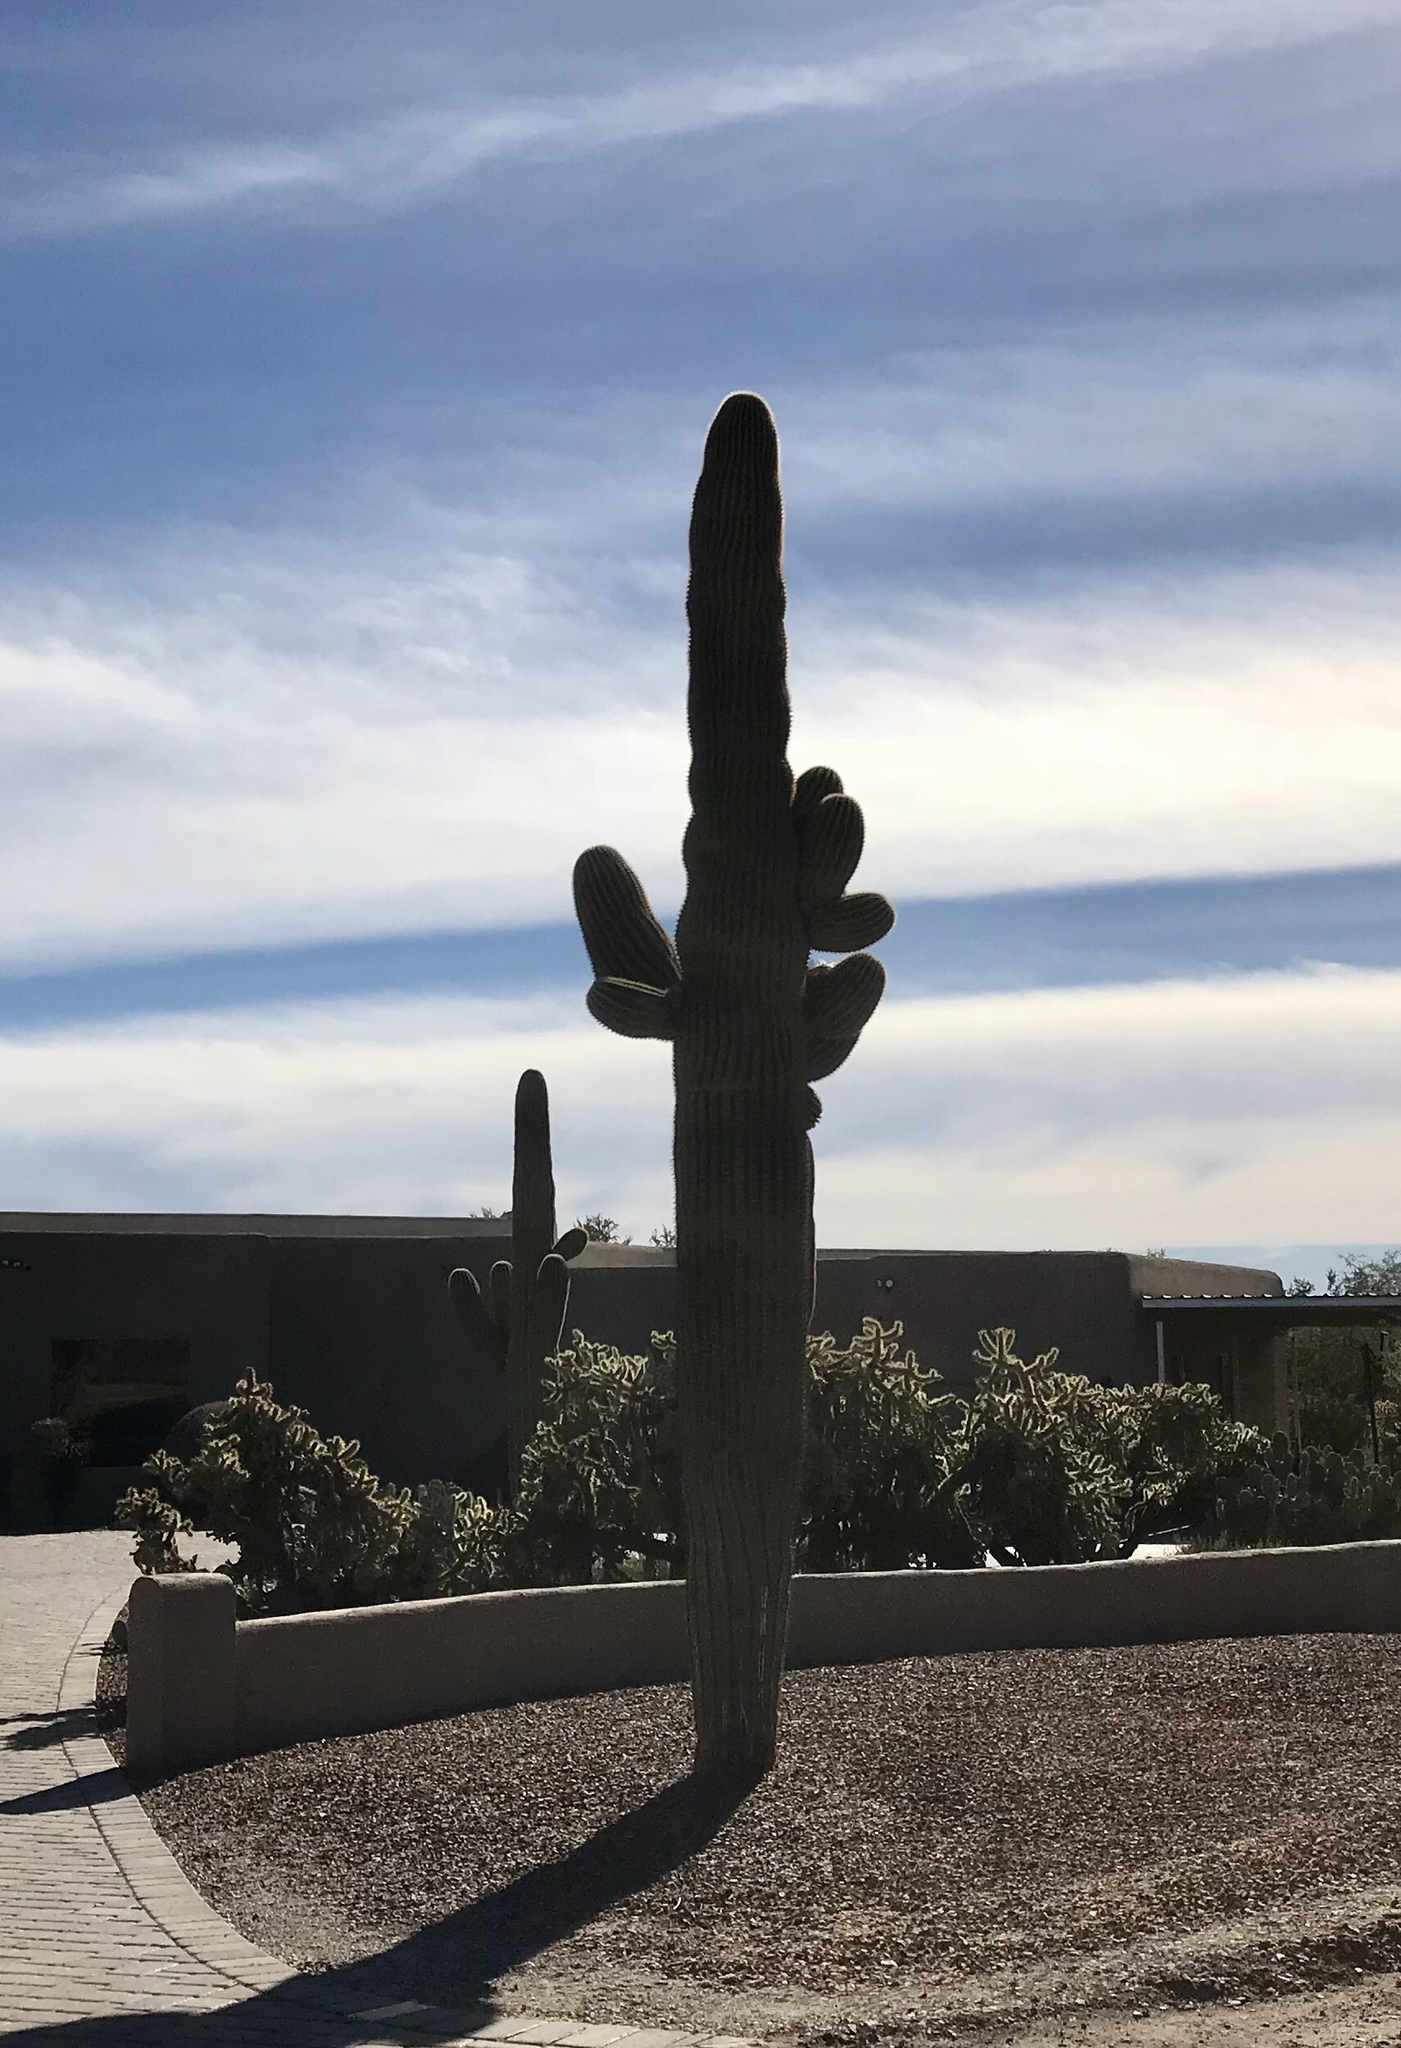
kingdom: Plantae
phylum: Tracheophyta
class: Magnoliopsida
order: Caryophyllales
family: Cactaceae
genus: Carnegiea
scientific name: Carnegiea gigantea
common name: Saguaro
